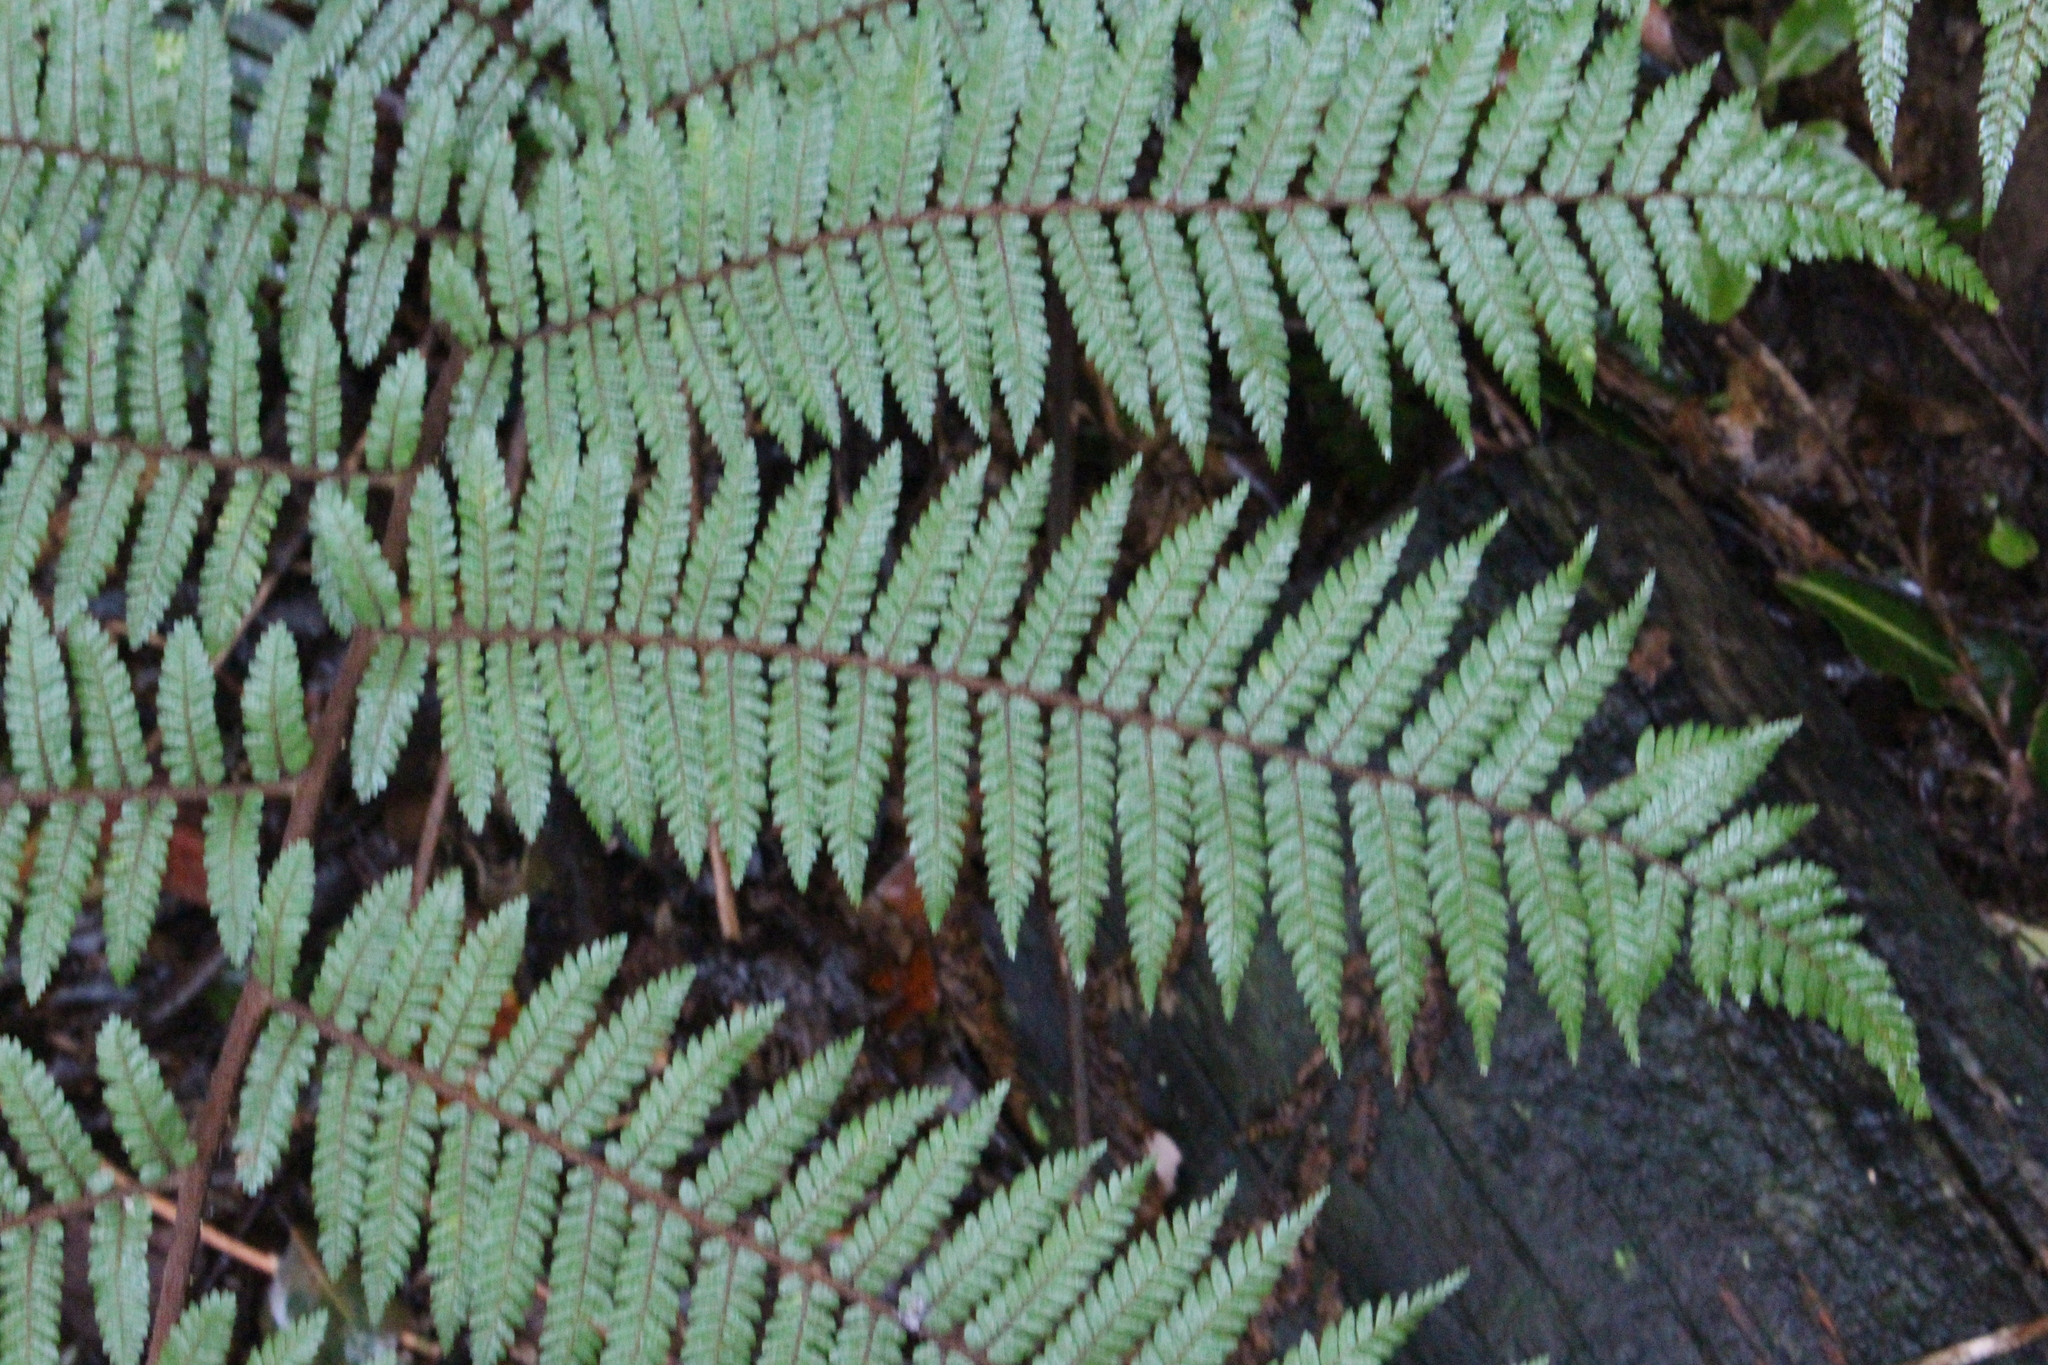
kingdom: Plantae
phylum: Tracheophyta
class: Polypodiopsida
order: Cyatheales
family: Cyatheaceae
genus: Alsophila
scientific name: Alsophila colensoi
